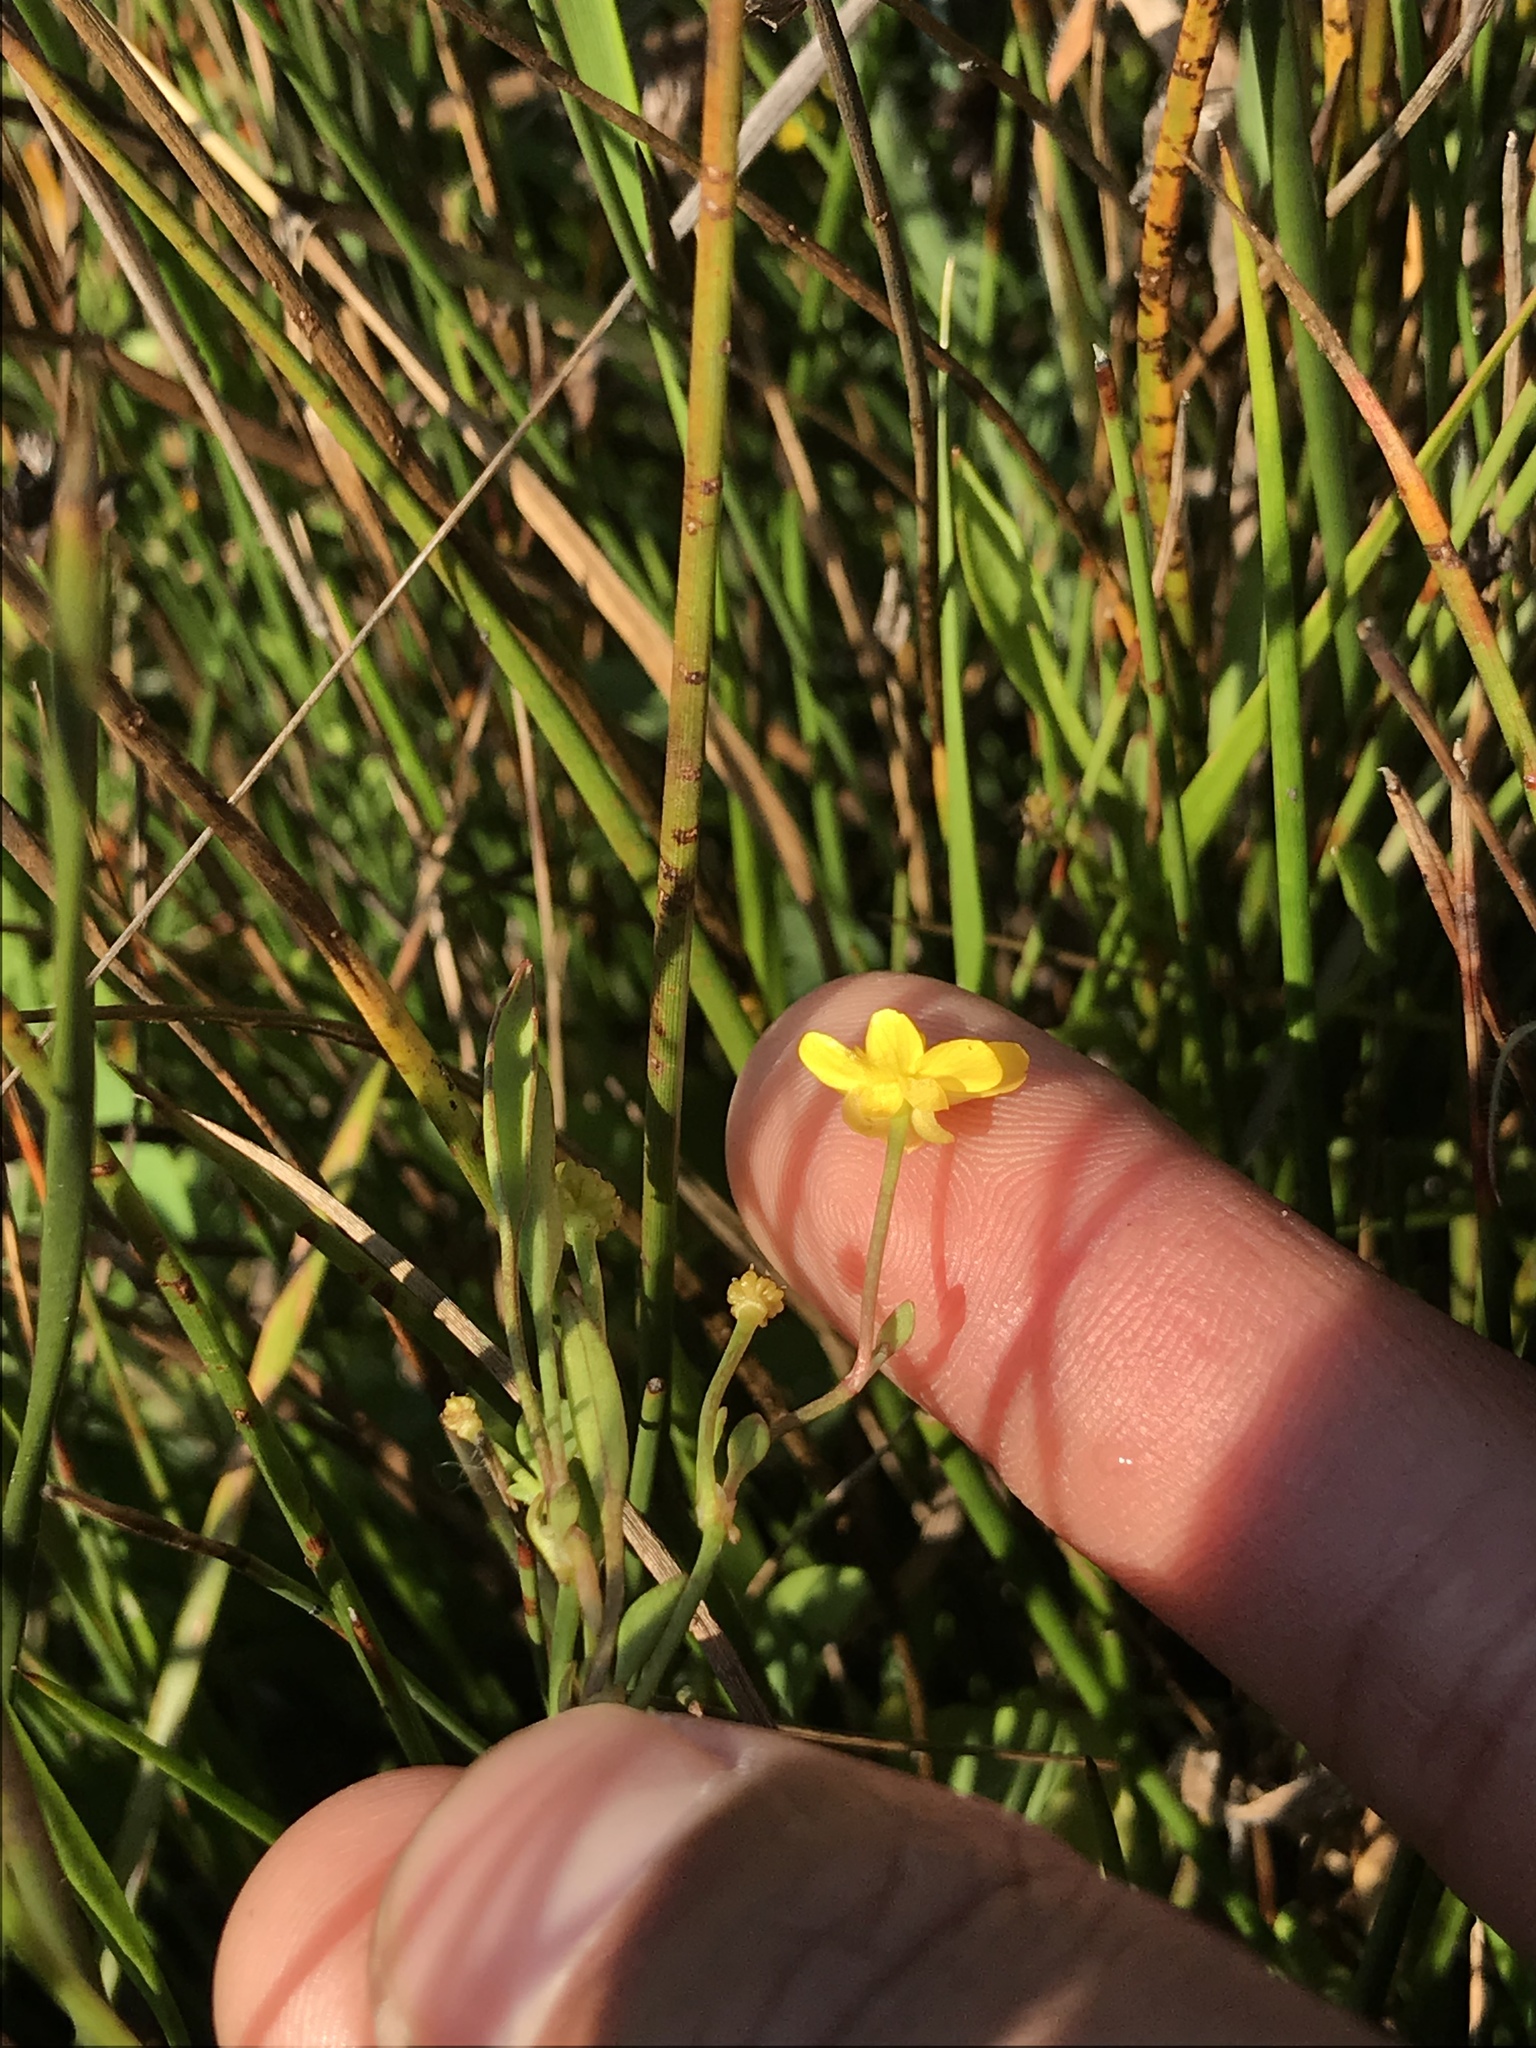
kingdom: Plantae
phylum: Tracheophyta
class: Magnoliopsida
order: Ranunculales
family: Ranunculaceae
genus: Ranunculus
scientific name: Ranunculus flammula
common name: Lesser spearwort
